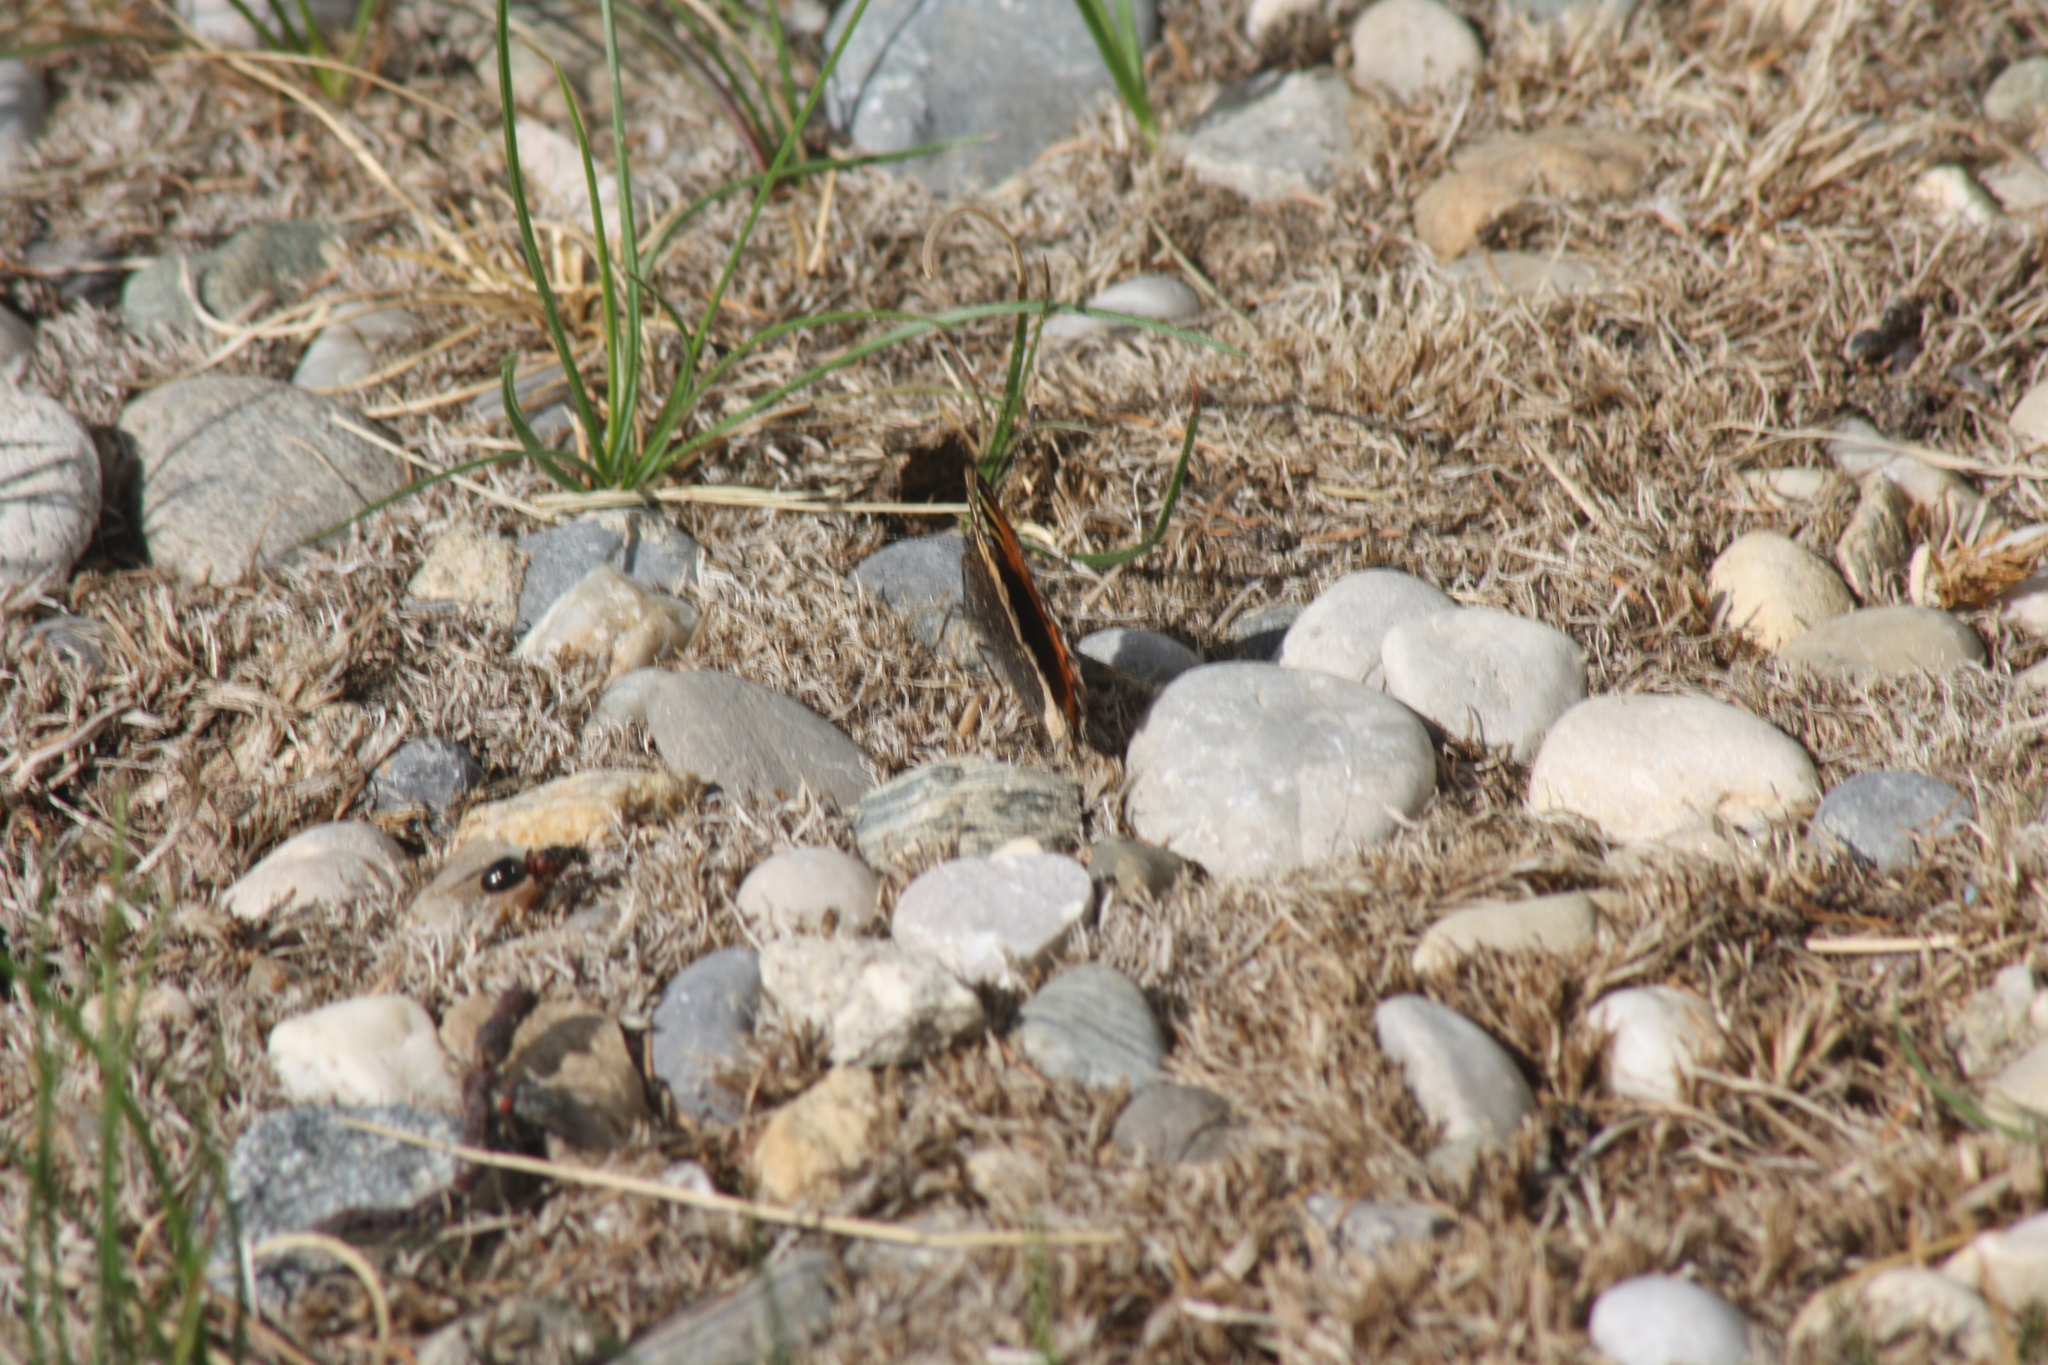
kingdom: Animalia
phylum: Arthropoda
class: Insecta
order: Lepidoptera
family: Nymphalidae
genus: Aglais
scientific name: Aglais urticae
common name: Small tortoiseshell
